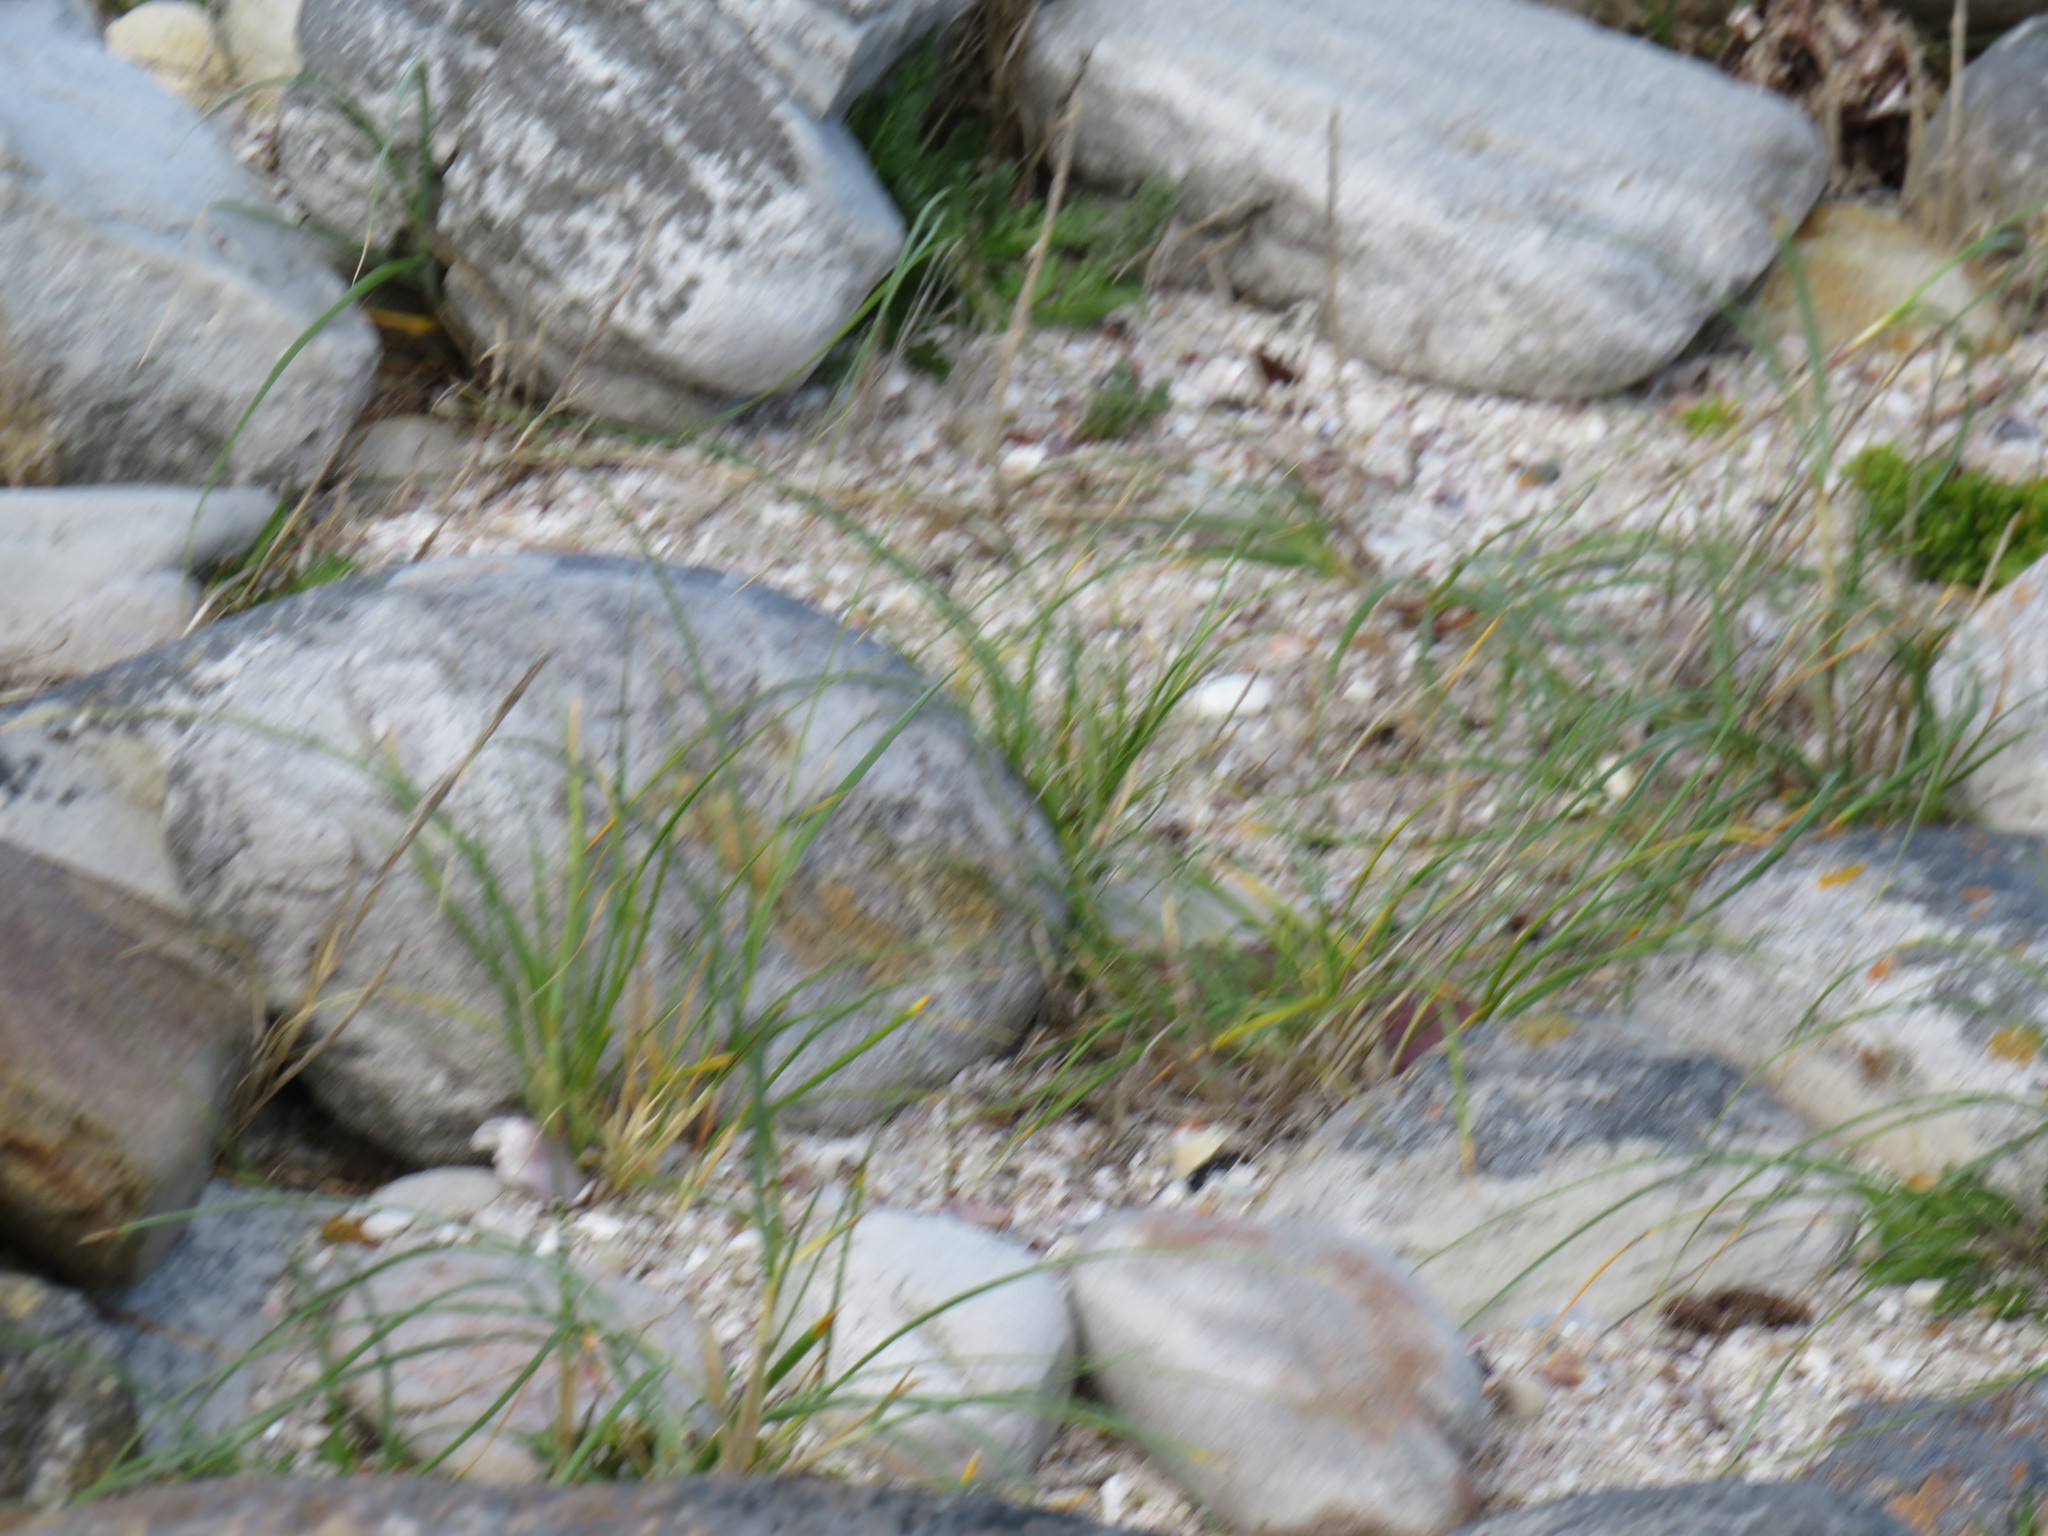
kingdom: Plantae
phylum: Tracheophyta
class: Liliopsida
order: Poales
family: Poaceae
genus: Thinopyrum
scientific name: Thinopyrum distichum
